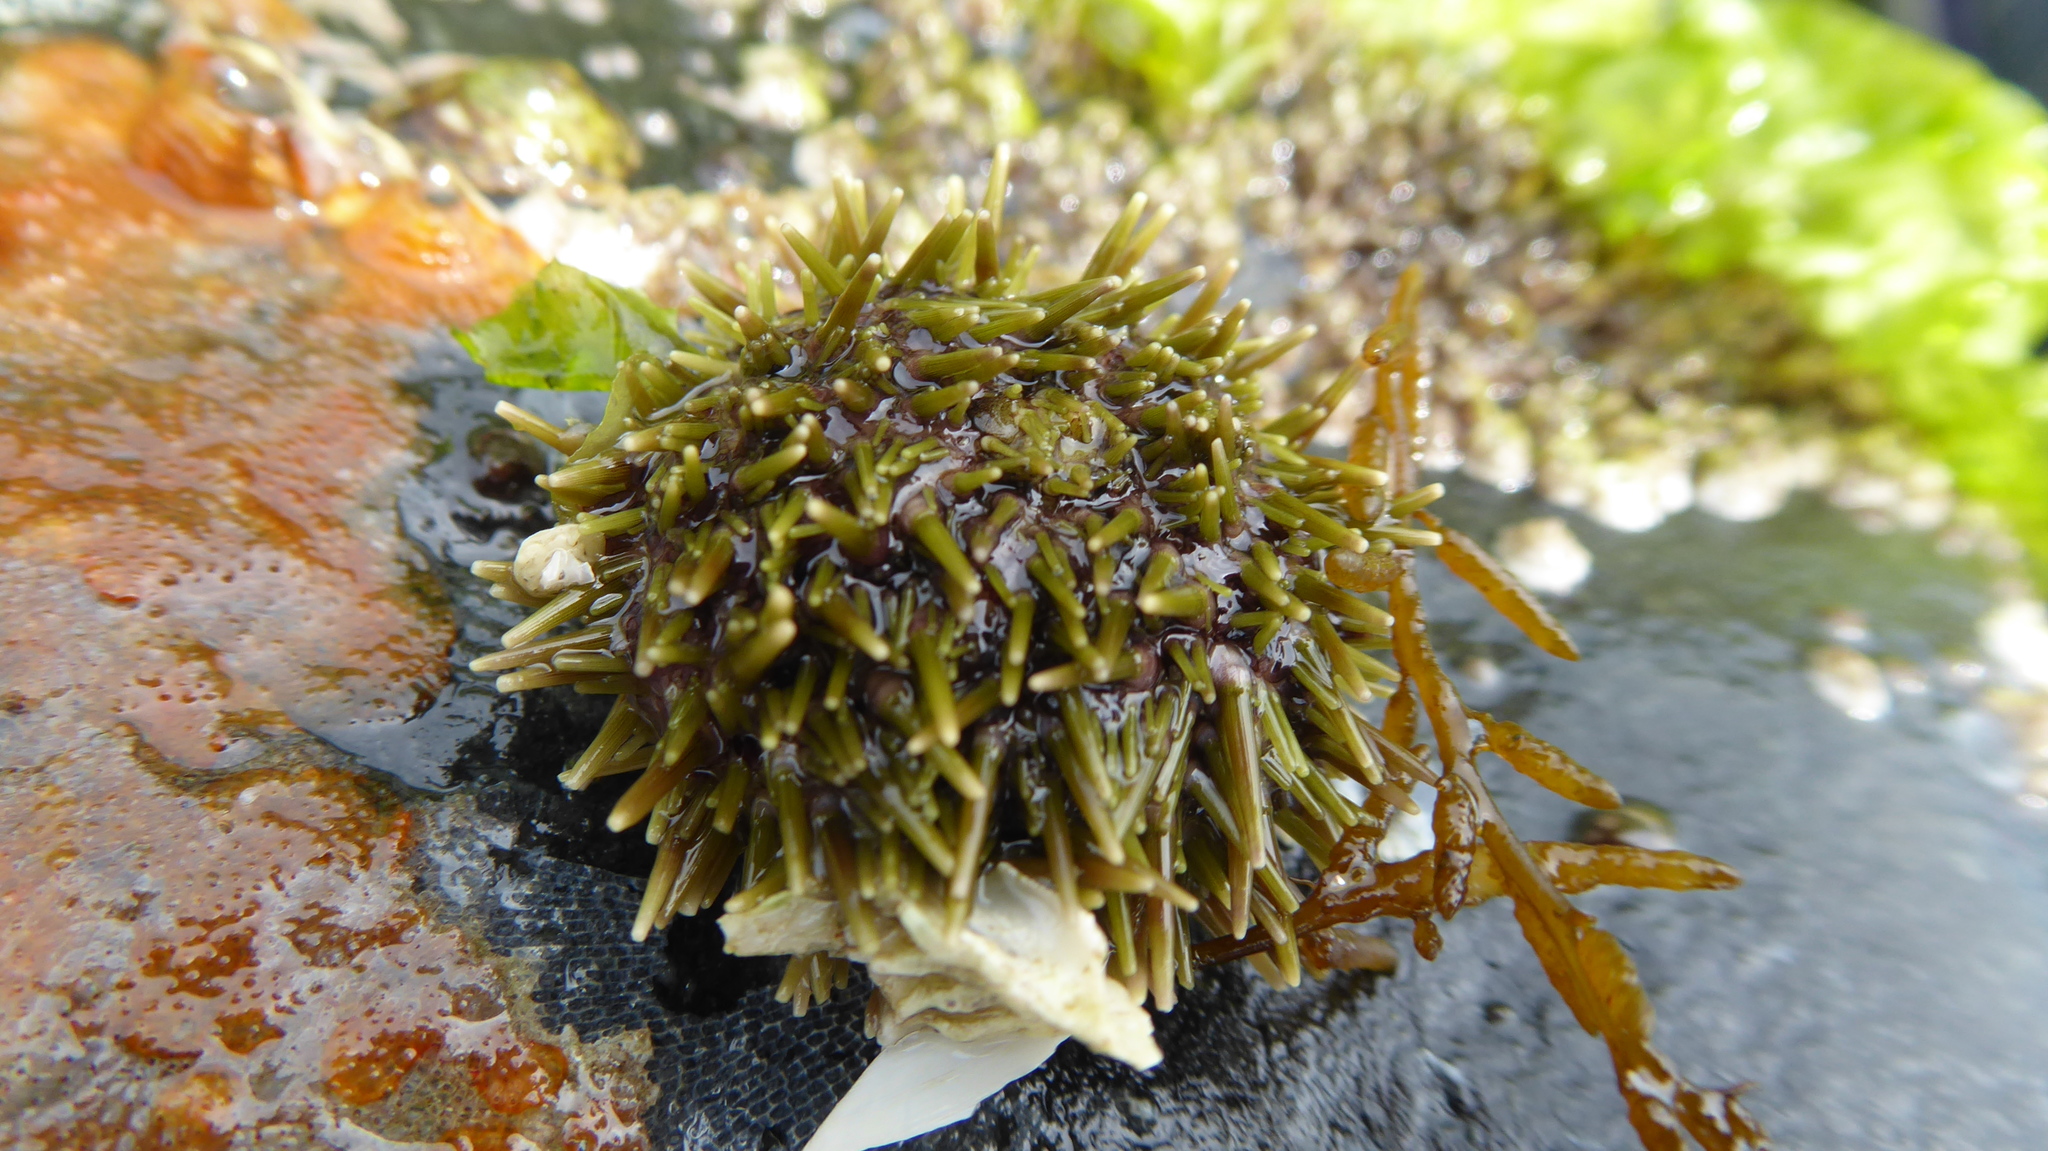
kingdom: Animalia
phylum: Echinodermata
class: Echinoidea
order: Camarodonta
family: Strongylocentrotidae
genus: Strongylocentrotus
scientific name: Strongylocentrotus droebachiensis
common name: Northern sea urchin
